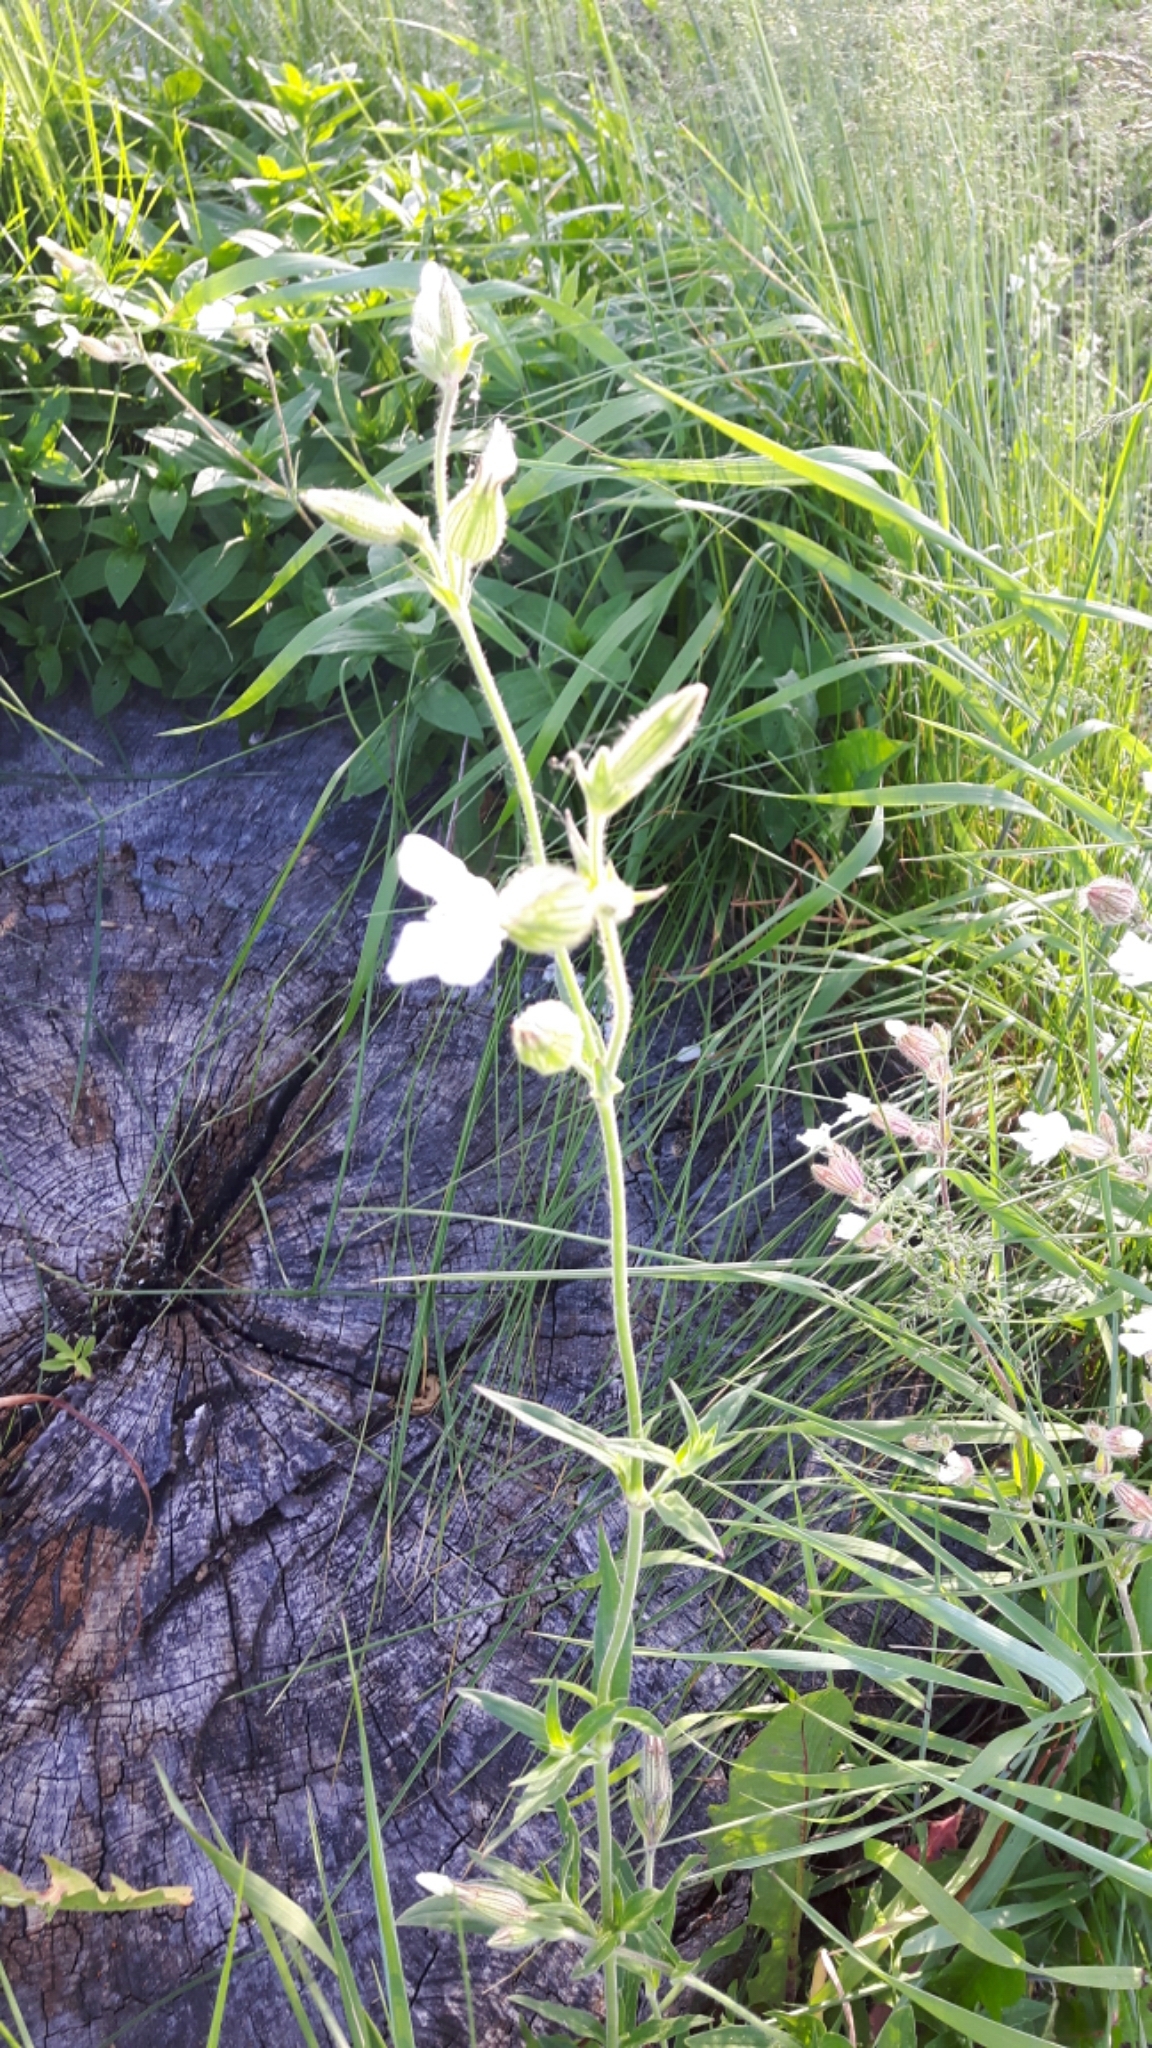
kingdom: Plantae
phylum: Tracheophyta
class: Magnoliopsida
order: Caryophyllales
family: Caryophyllaceae
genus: Silene
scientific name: Silene latifolia
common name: White campion
